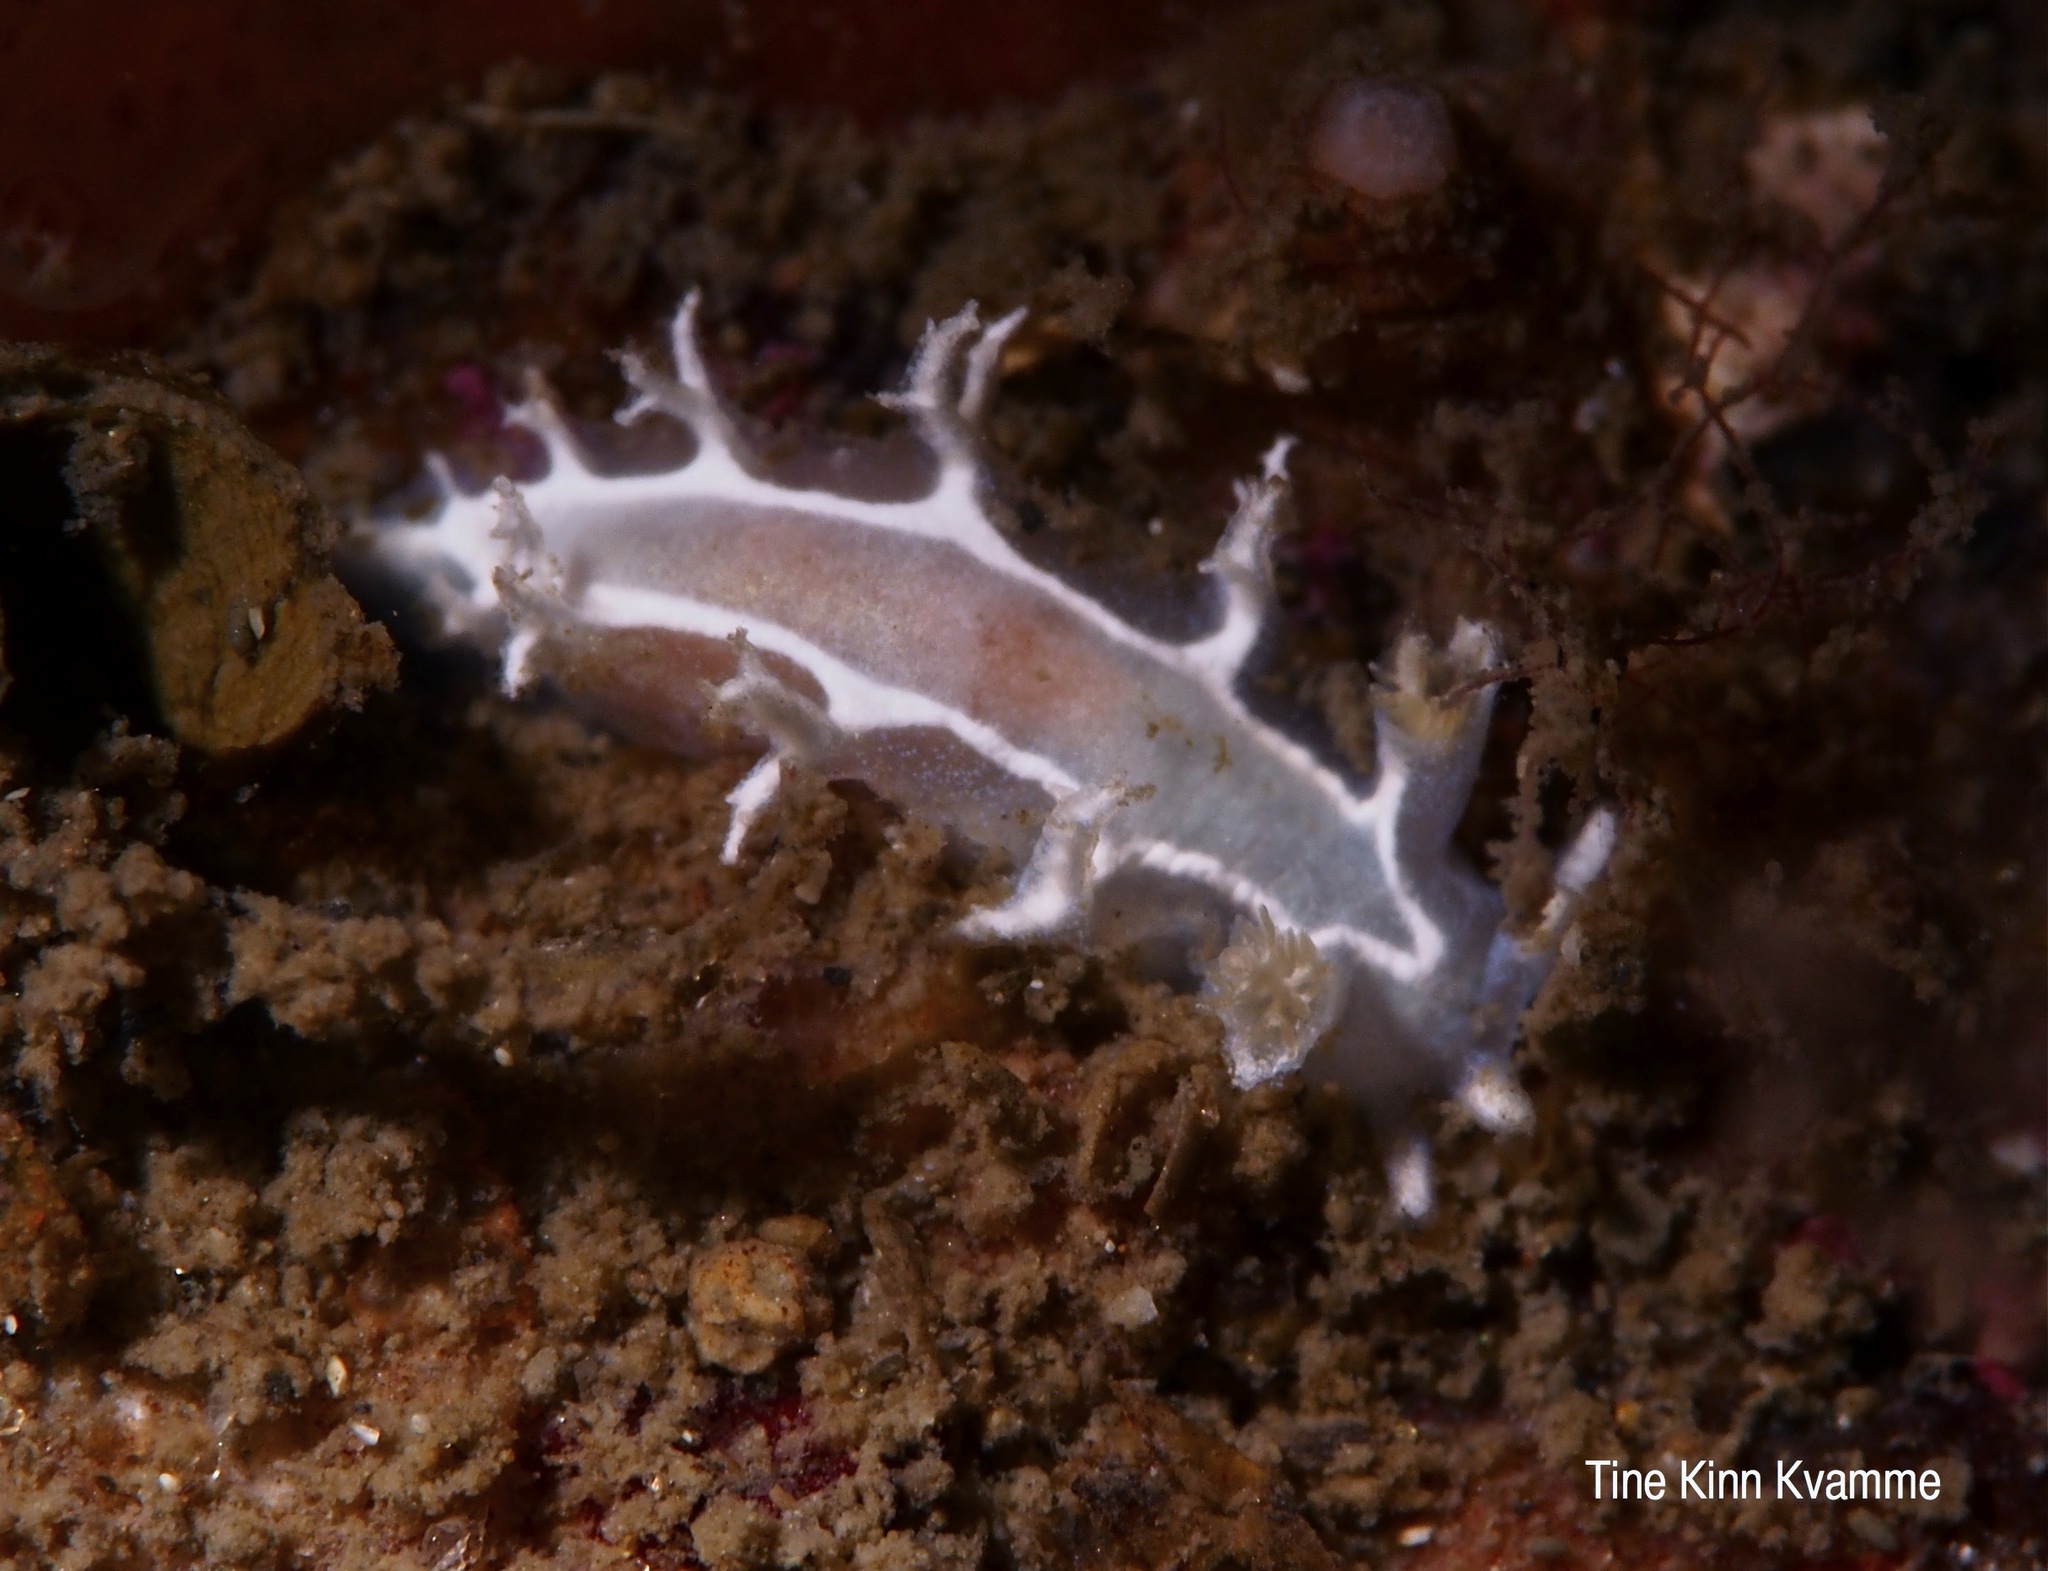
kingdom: Animalia
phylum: Mollusca
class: Gastropoda
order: Nudibranchia
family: Tritoniidae
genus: Duvaucelia
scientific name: Duvaucelia lineata
